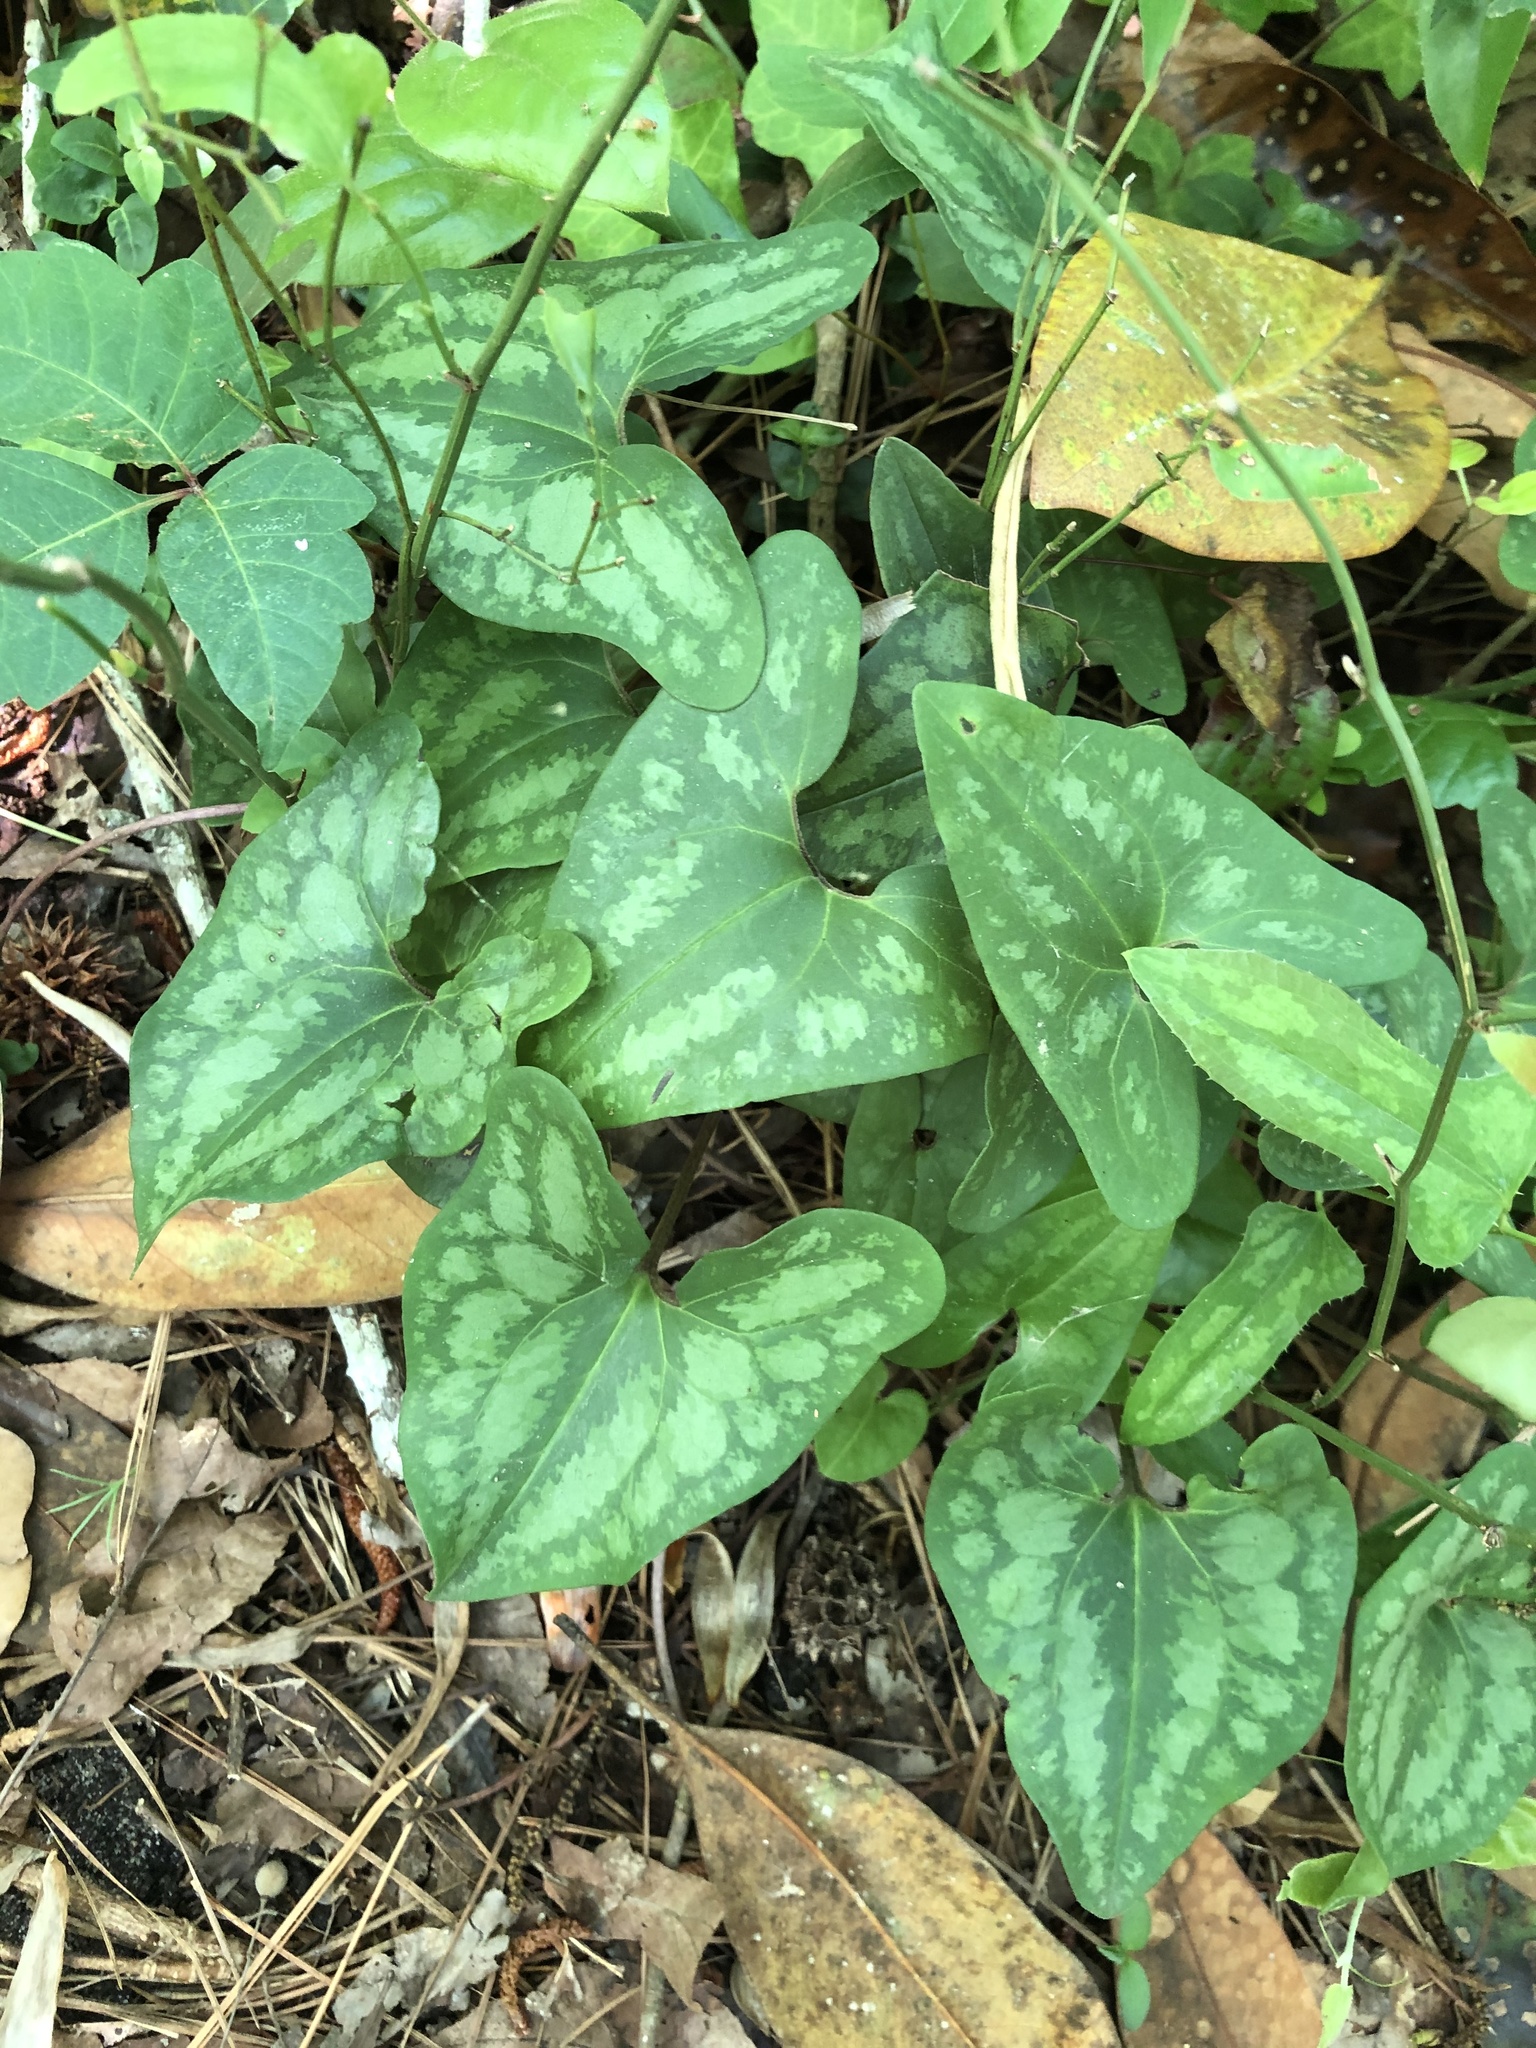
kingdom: Plantae
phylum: Tracheophyta
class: Magnoliopsida
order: Piperales
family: Aristolochiaceae
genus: Hexastylis
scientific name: Hexastylis arifolia
